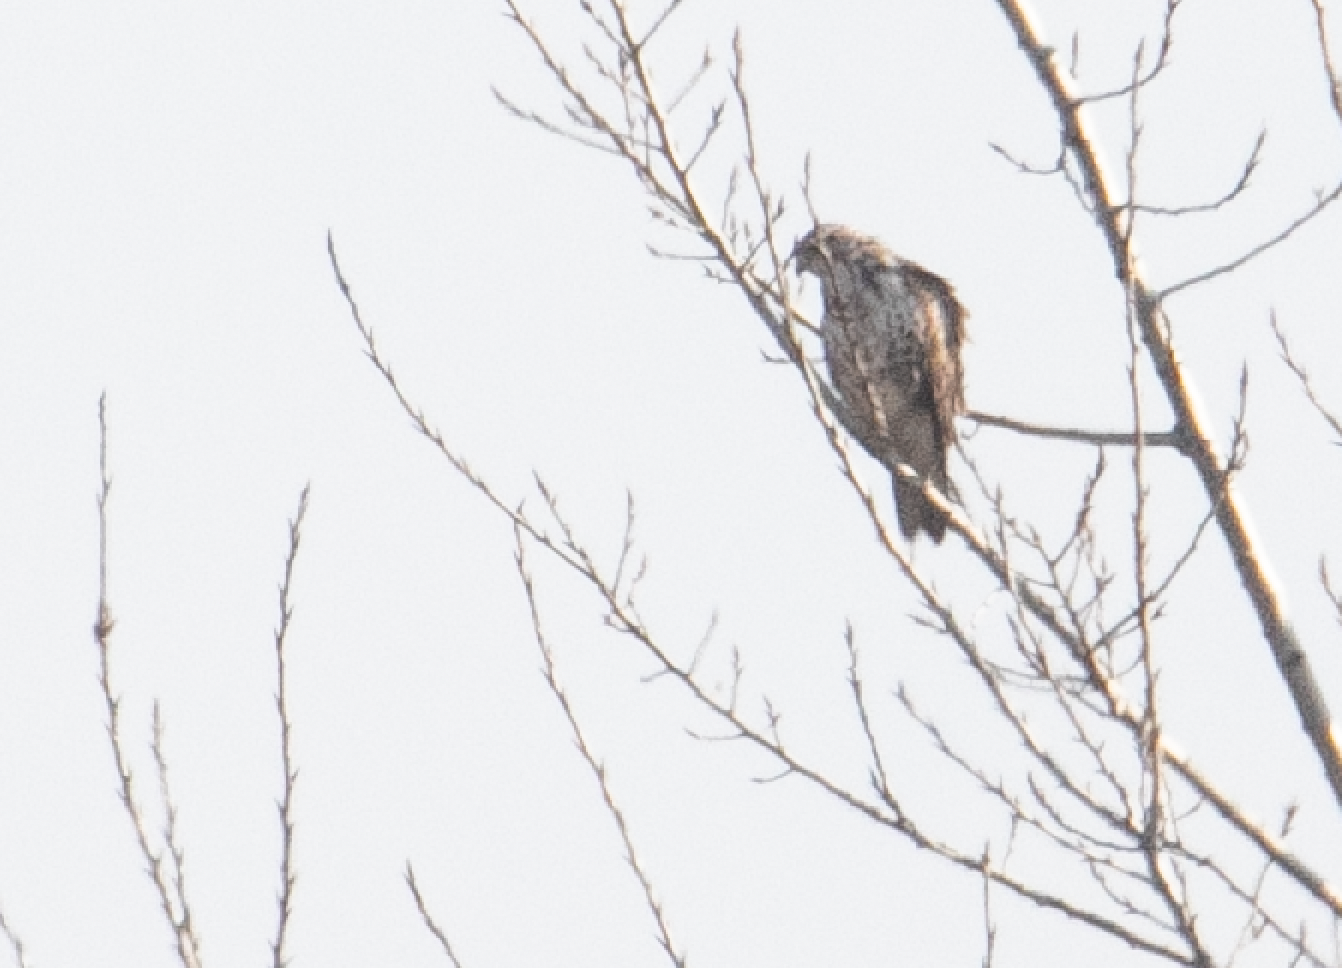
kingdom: Animalia
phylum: Chordata
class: Aves
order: Accipitriformes
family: Accipitridae
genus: Buteo
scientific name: Buteo buteo
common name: Common buzzard
